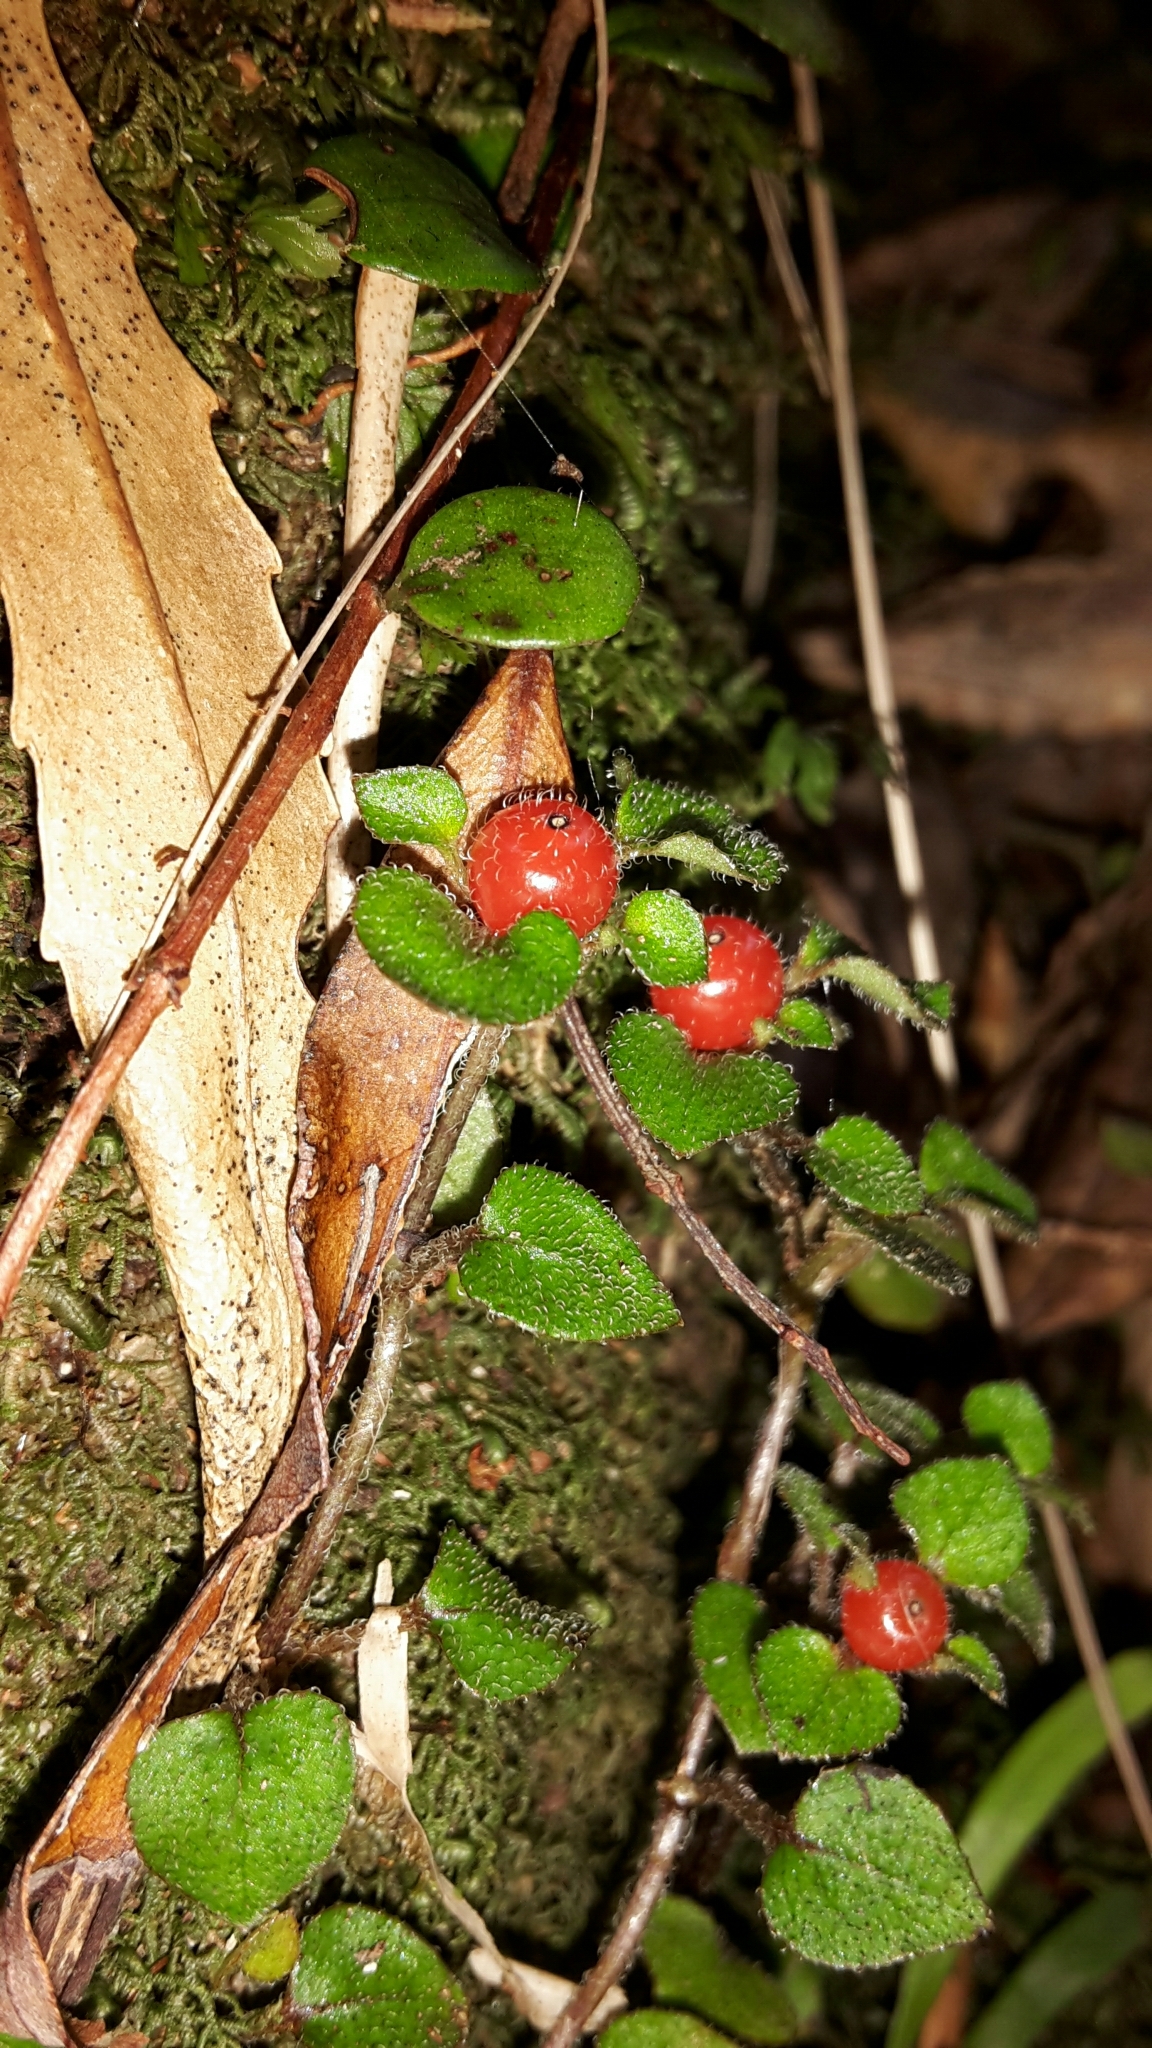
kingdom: Plantae
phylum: Tracheophyta
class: Magnoliopsida
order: Gentianales
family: Rubiaceae
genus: Nertera
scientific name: Nertera dichondrifolia
